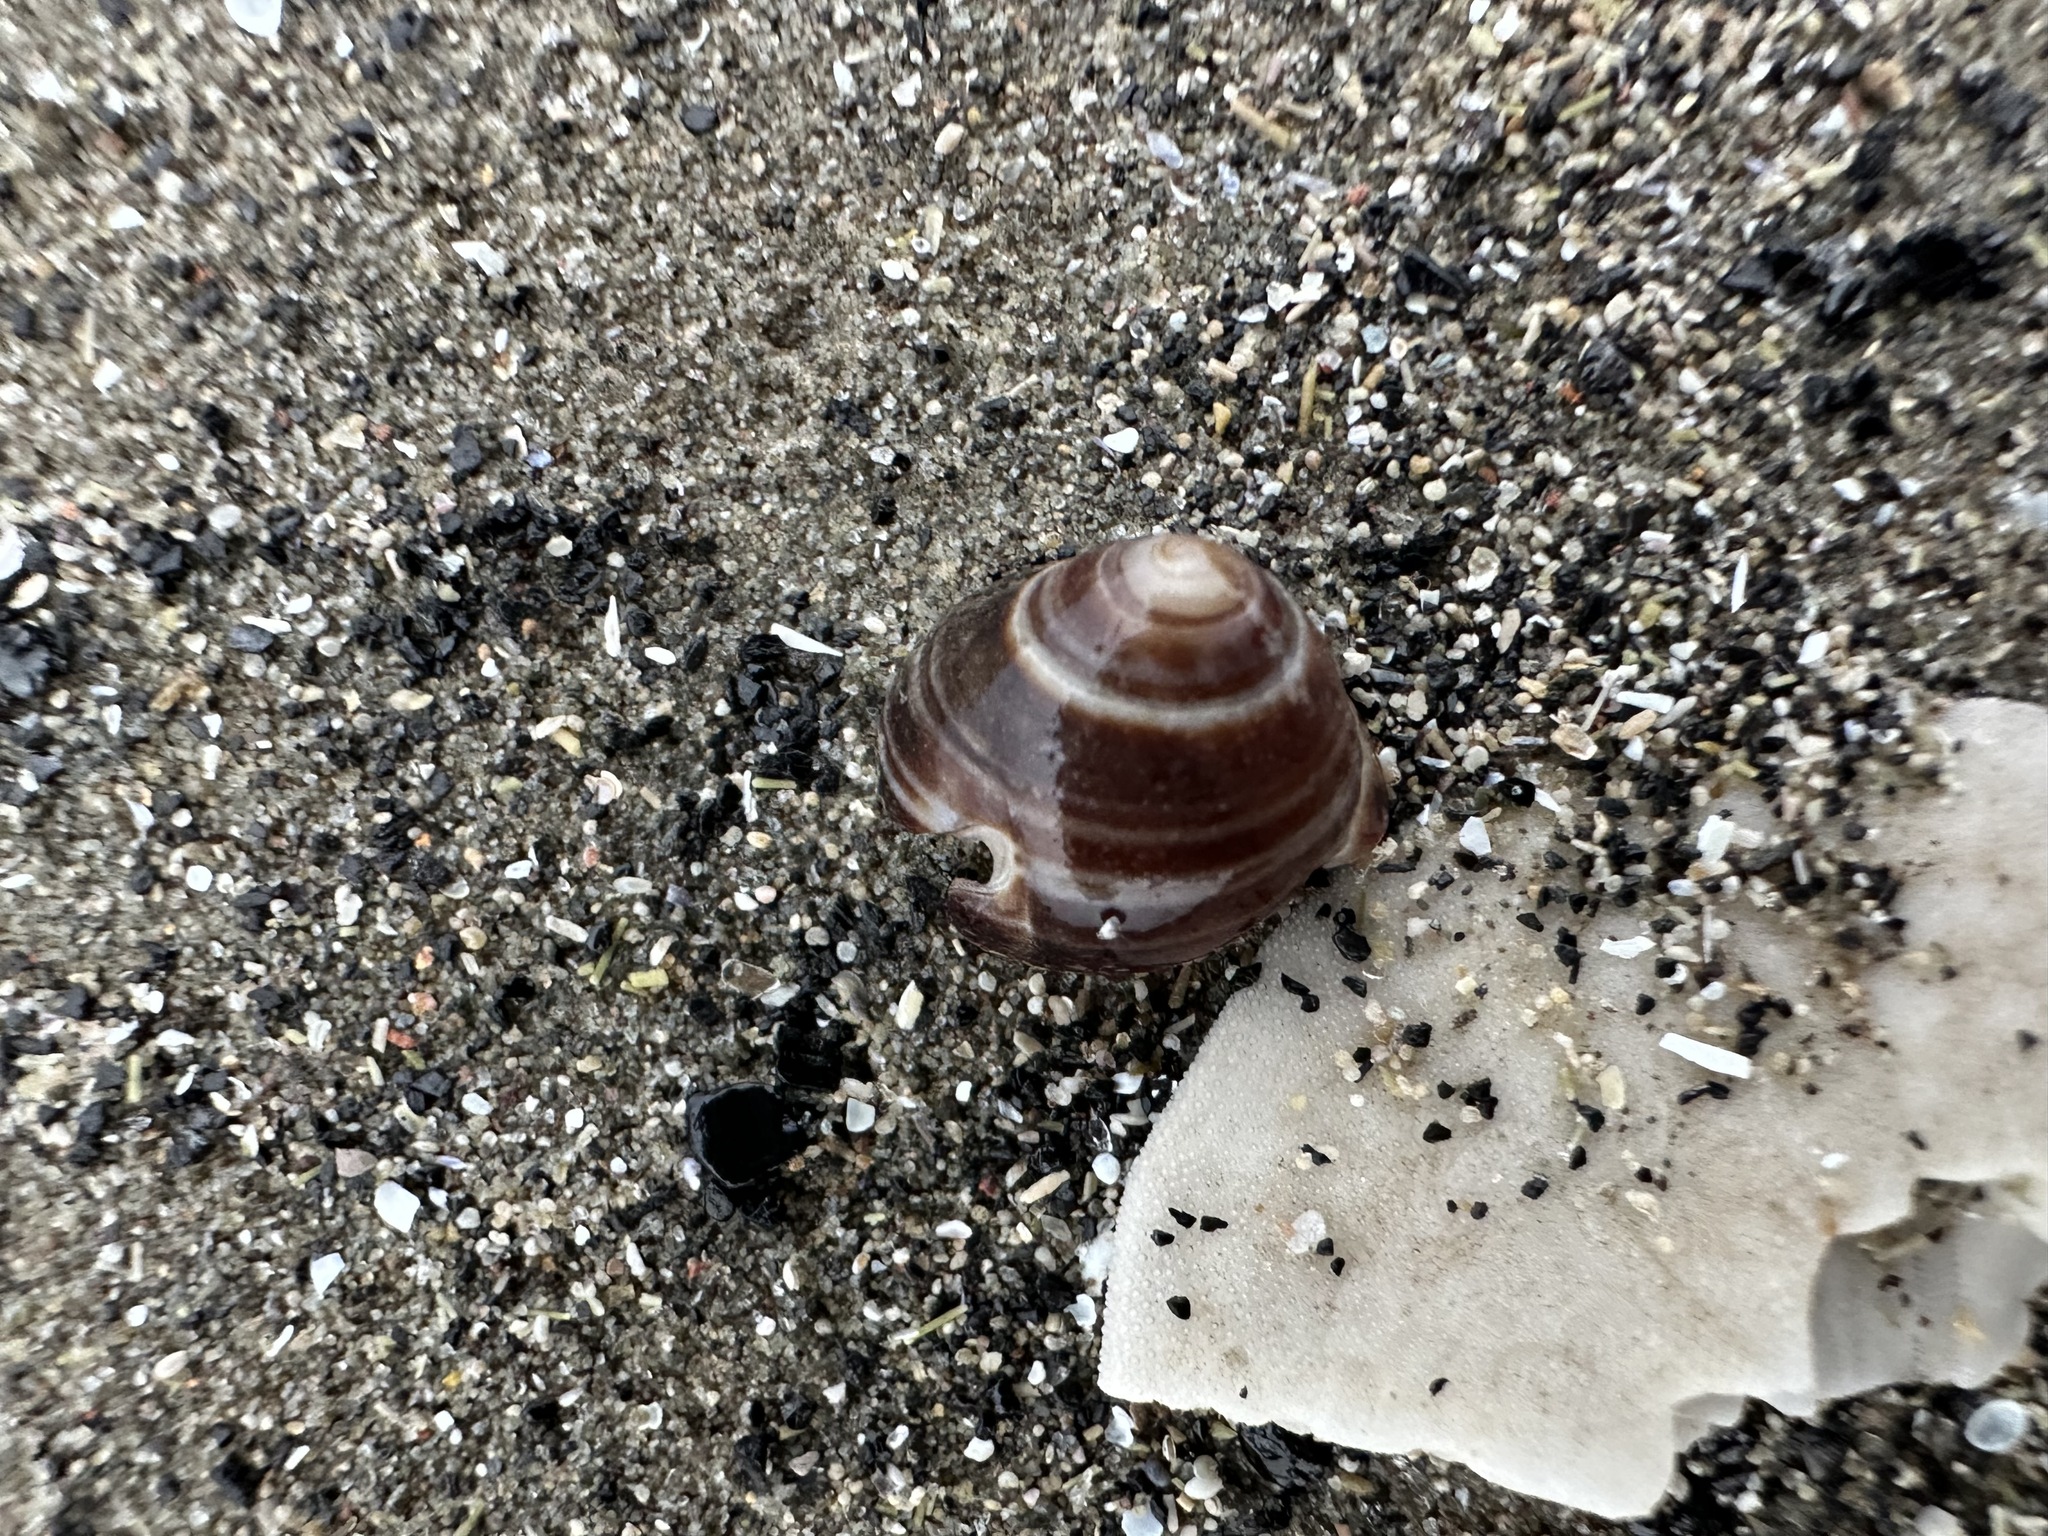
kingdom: Animalia
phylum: Mollusca
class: Gastropoda
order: Littorinimorpha
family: Littorinidae
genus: Littorina
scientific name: Littorina littorea
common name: Common periwinkle
